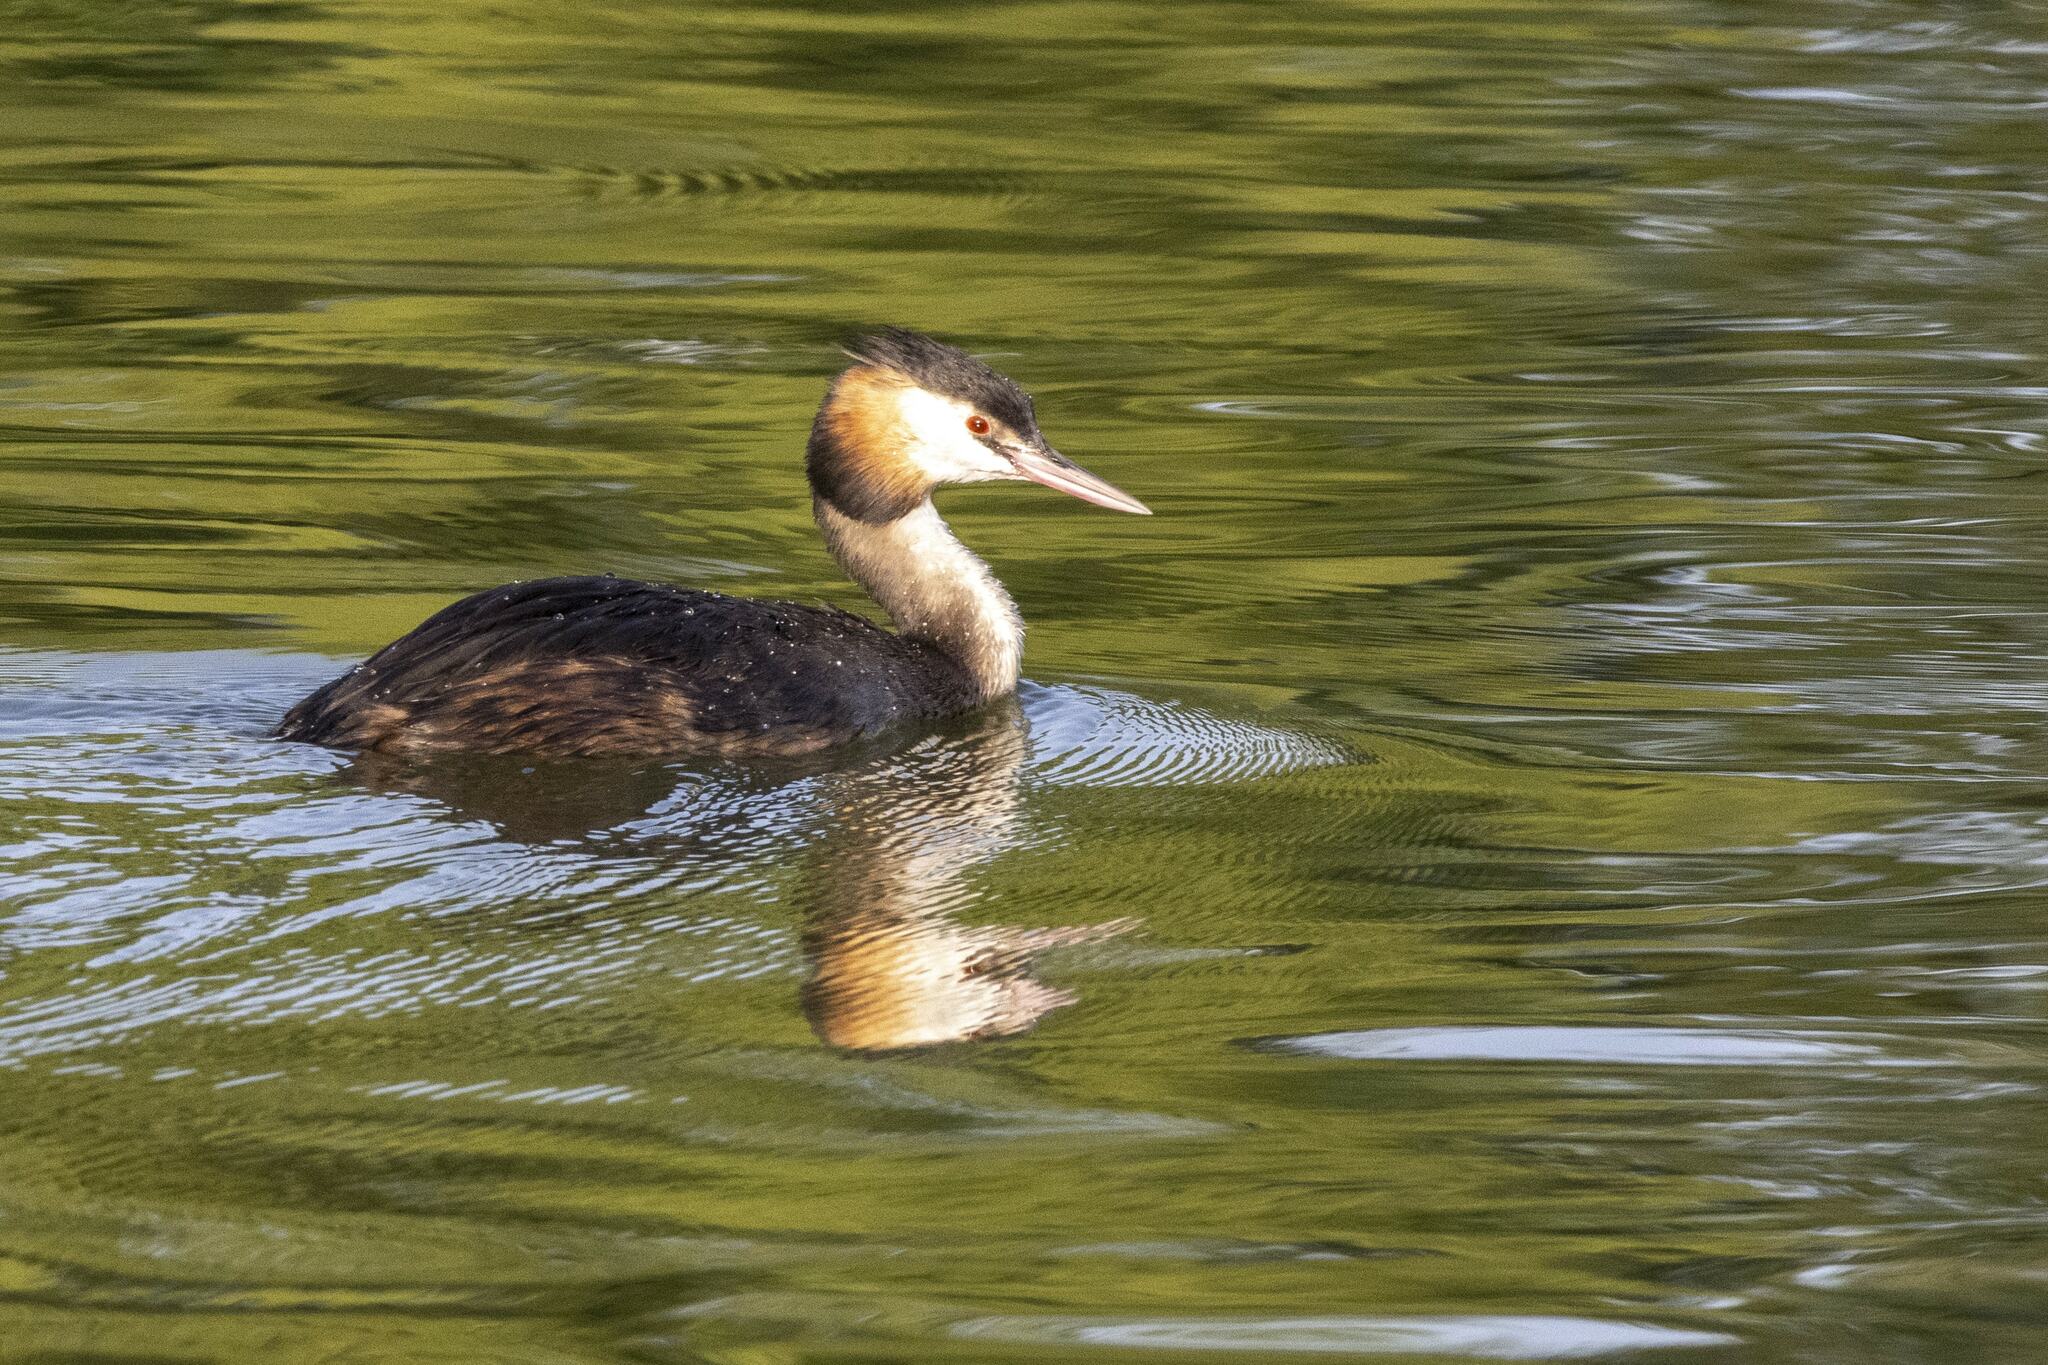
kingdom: Animalia
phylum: Chordata
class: Aves
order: Podicipediformes
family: Podicipedidae
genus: Podiceps
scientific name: Podiceps cristatus
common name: Great crested grebe
